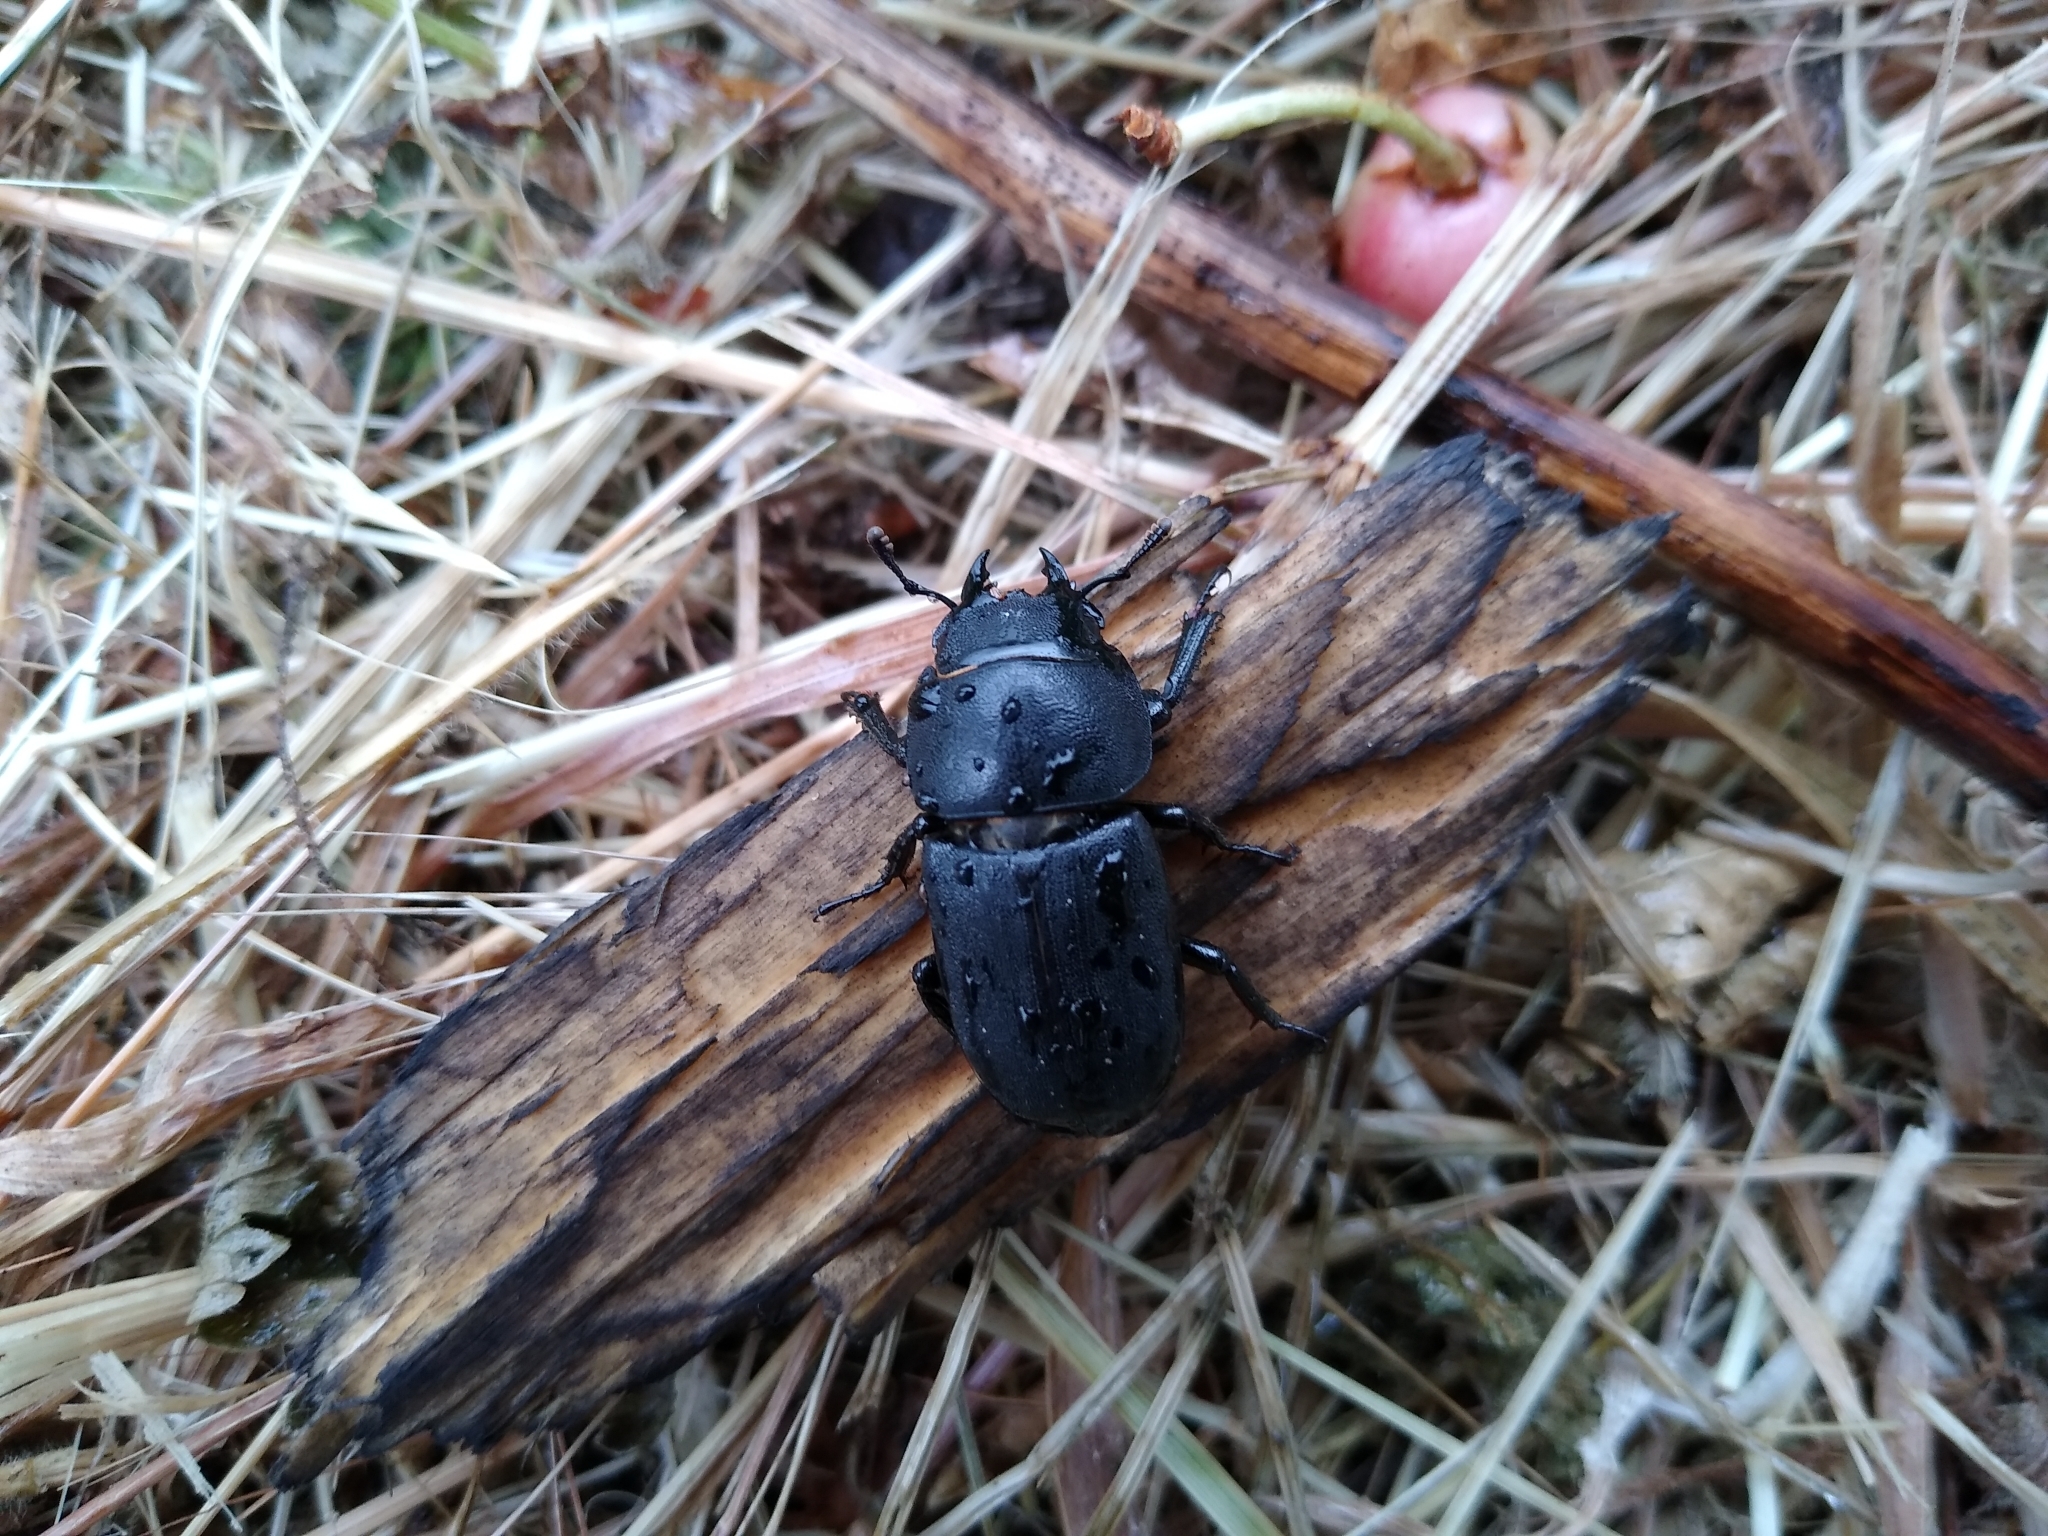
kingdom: Animalia
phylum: Arthropoda
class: Insecta
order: Coleoptera
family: Lucanidae
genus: Dorcus
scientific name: Dorcus parallelipipedus
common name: Lesser stag beetle
